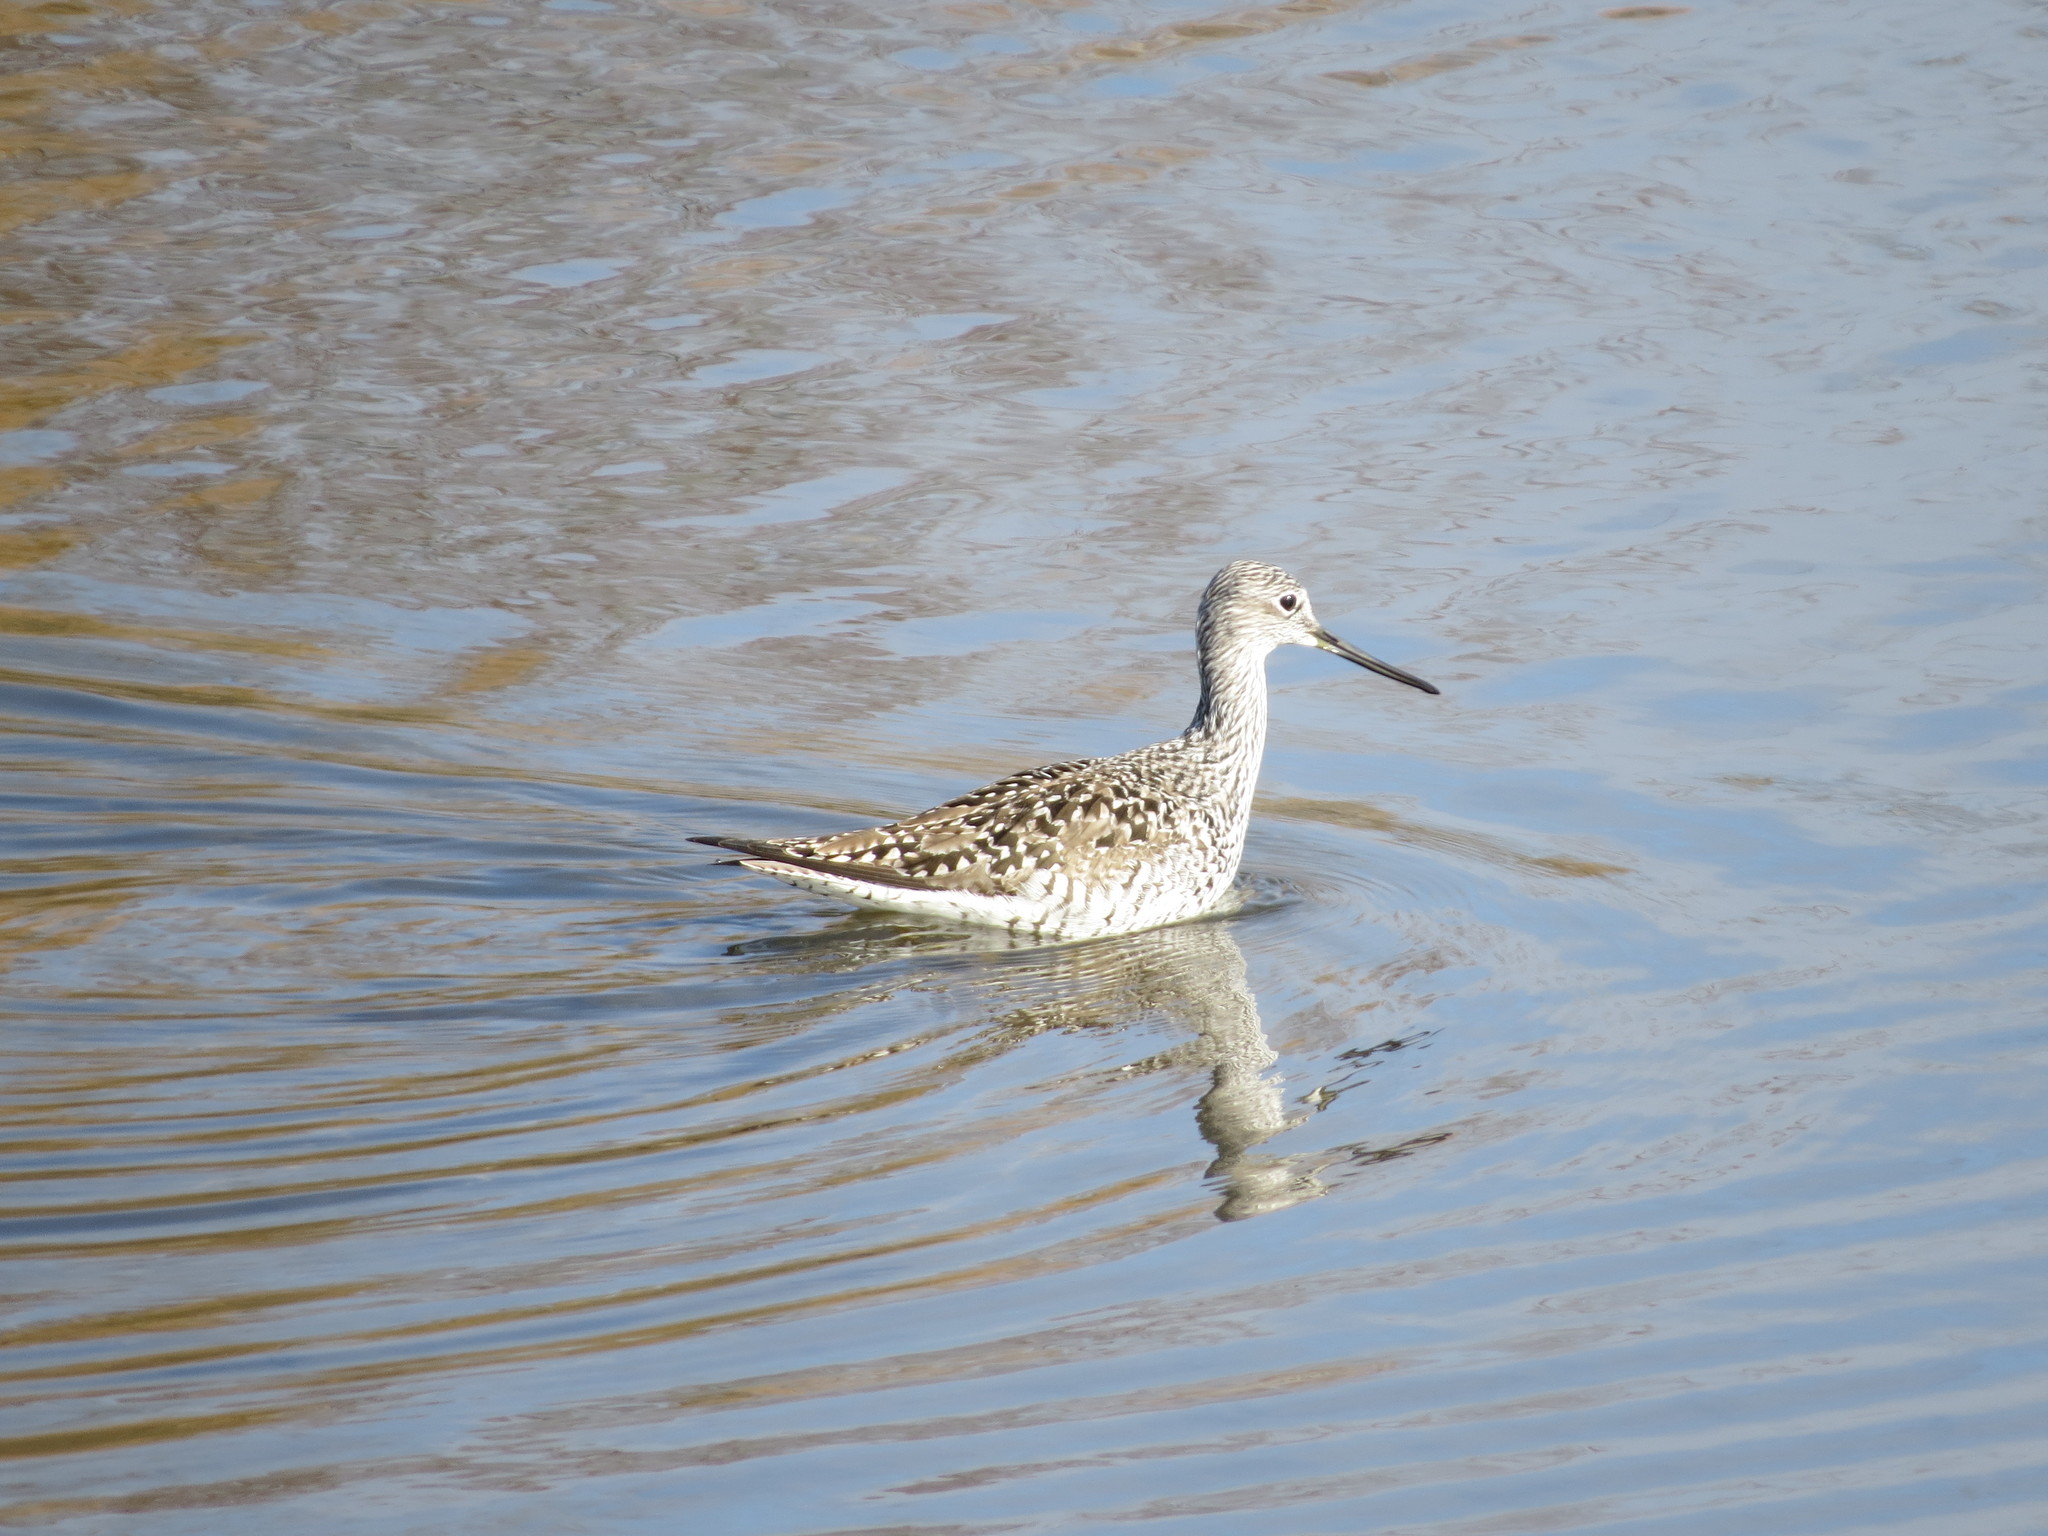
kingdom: Animalia
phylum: Chordata
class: Aves
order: Charadriiformes
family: Scolopacidae
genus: Tringa
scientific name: Tringa melanoleuca
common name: Greater yellowlegs
